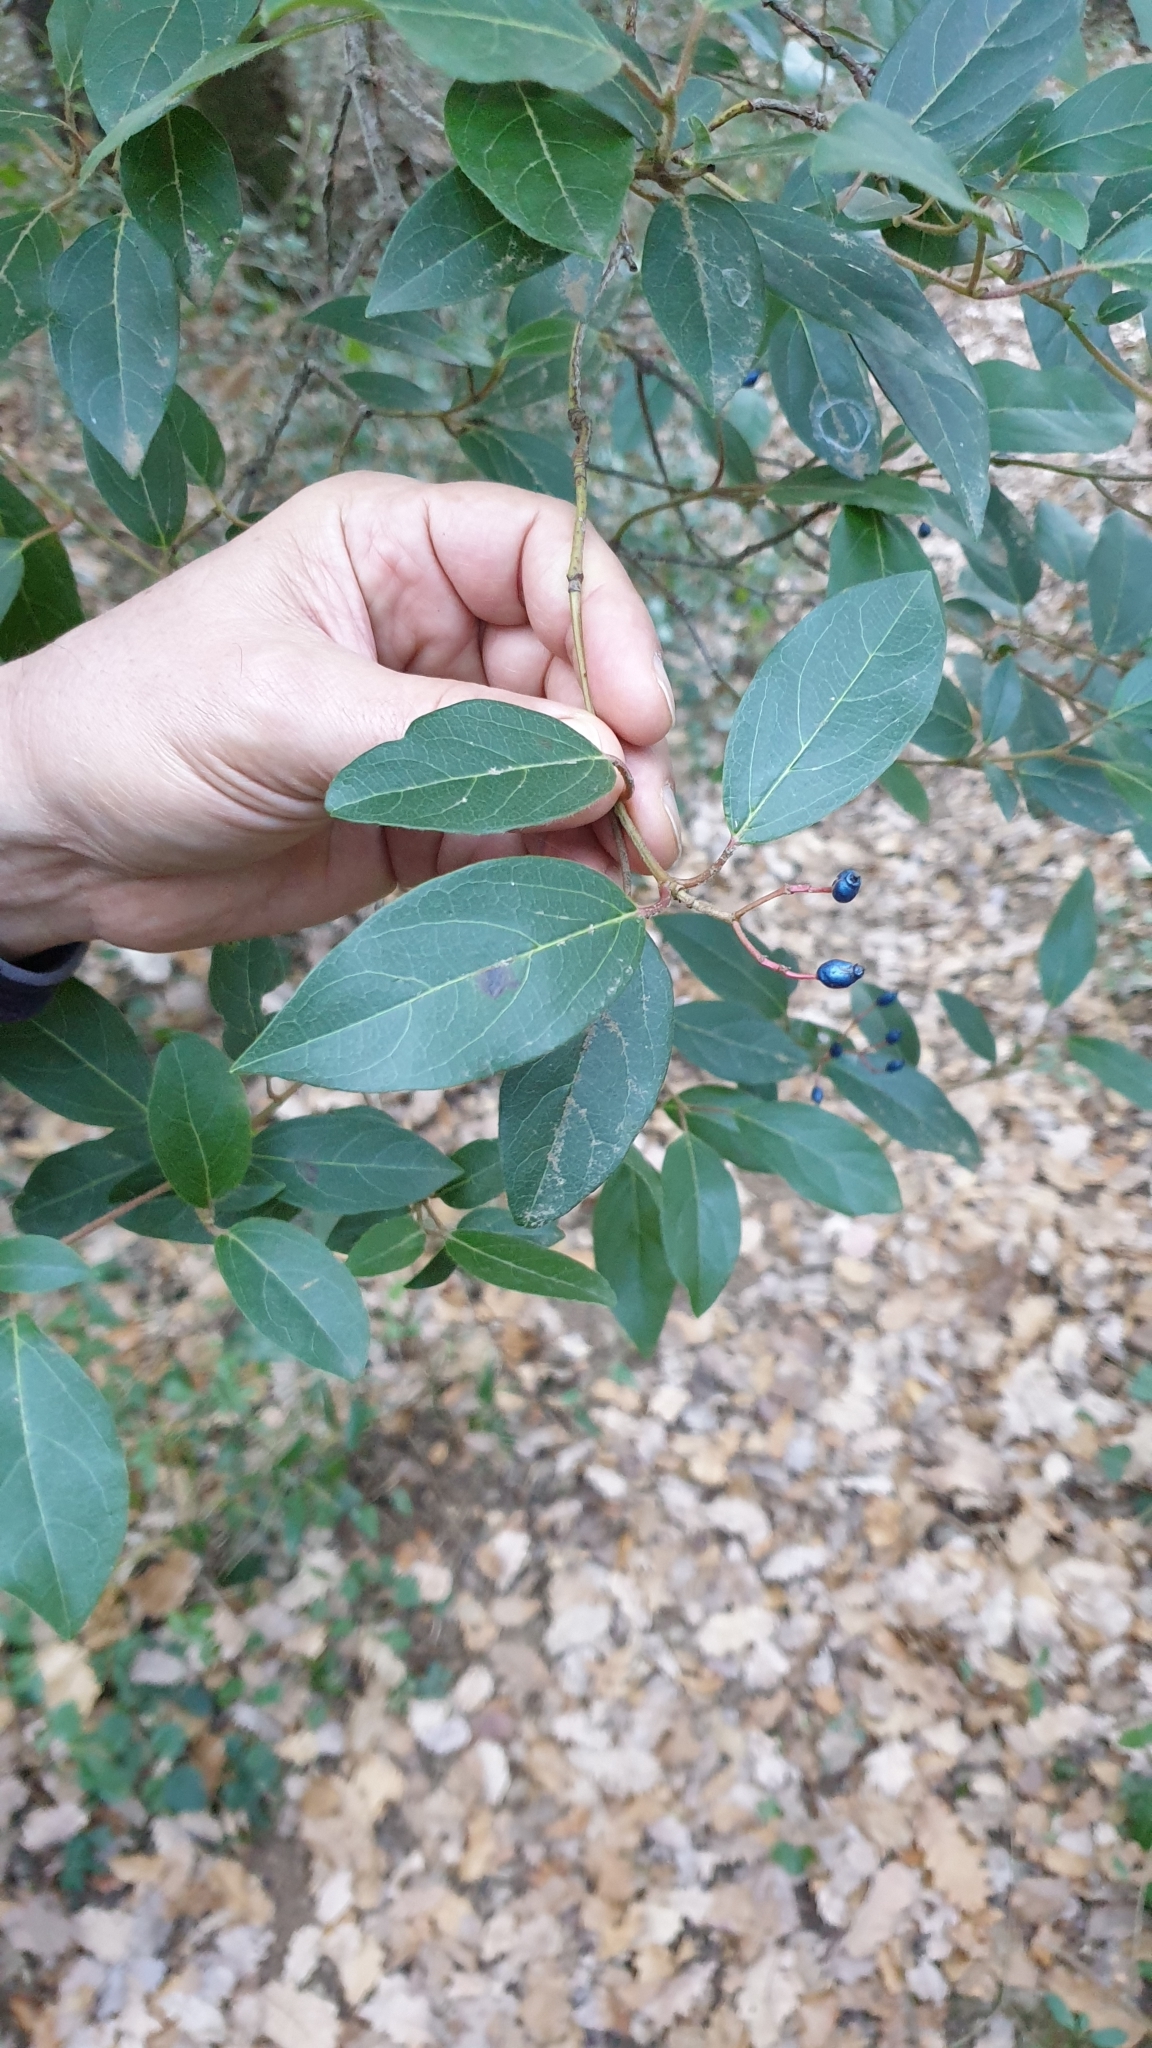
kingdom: Plantae
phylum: Tracheophyta
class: Magnoliopsida
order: Dipsacales
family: Viburnaceae
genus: Viburnum
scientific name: Viburnum tinus
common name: Laurustinus
